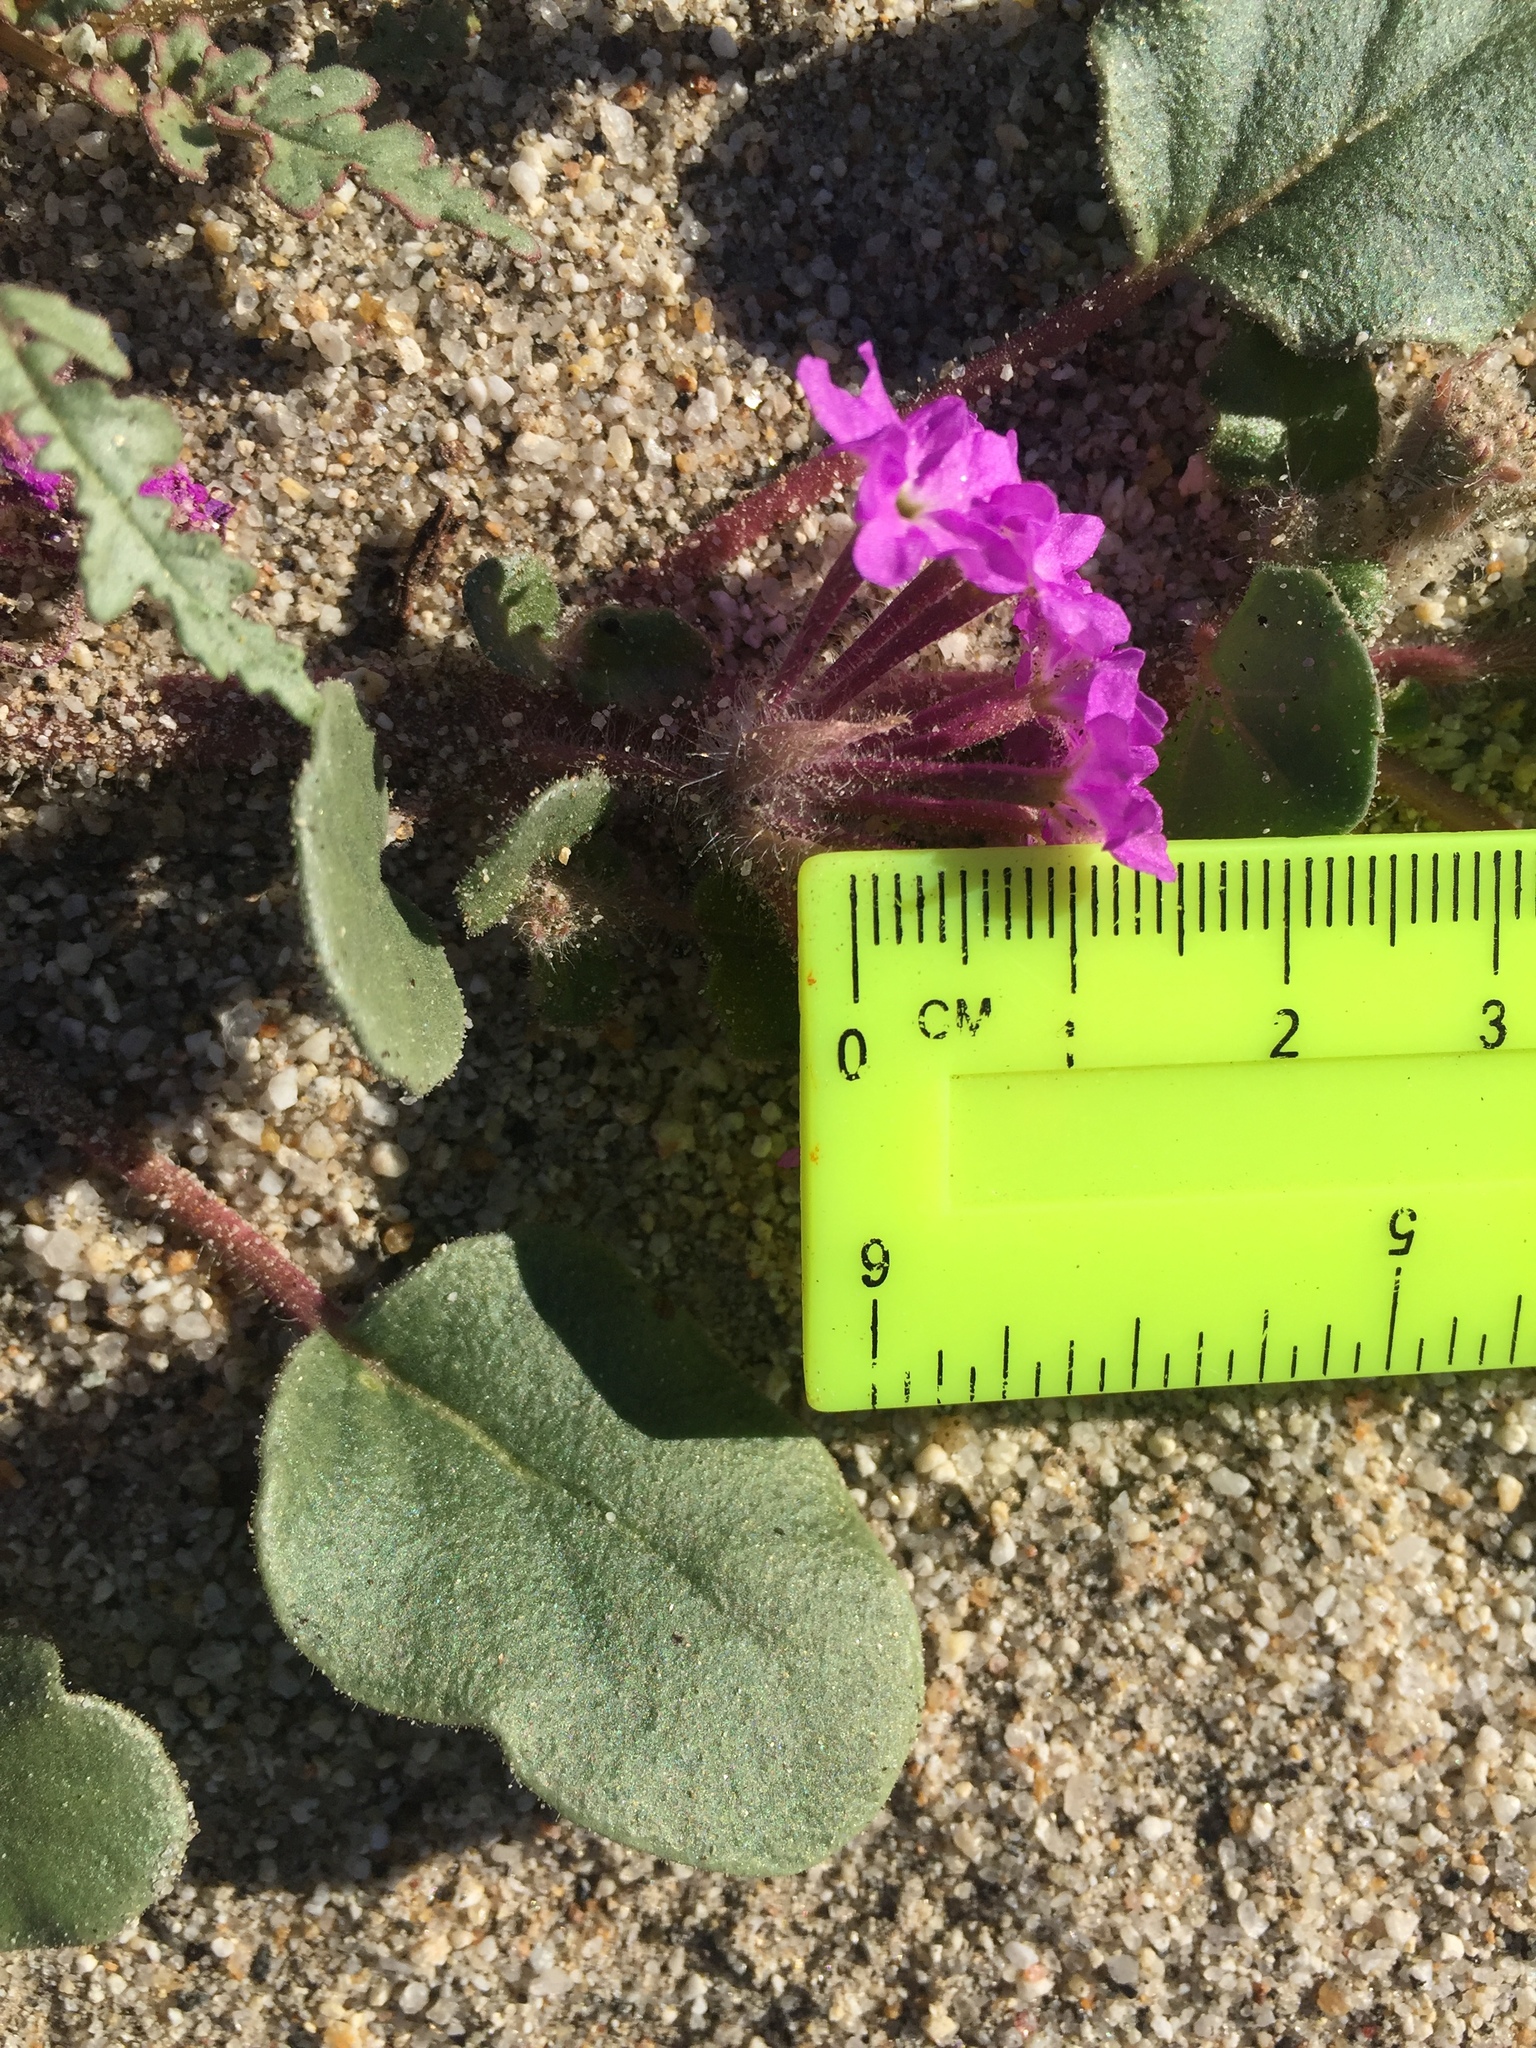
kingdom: Plantae
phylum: Tracheophyta
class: Magnoliopsida
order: Caryophyllales
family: Nyctaginaceae
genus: Abronia
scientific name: Abronia villosa
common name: Desert sand-verbena
